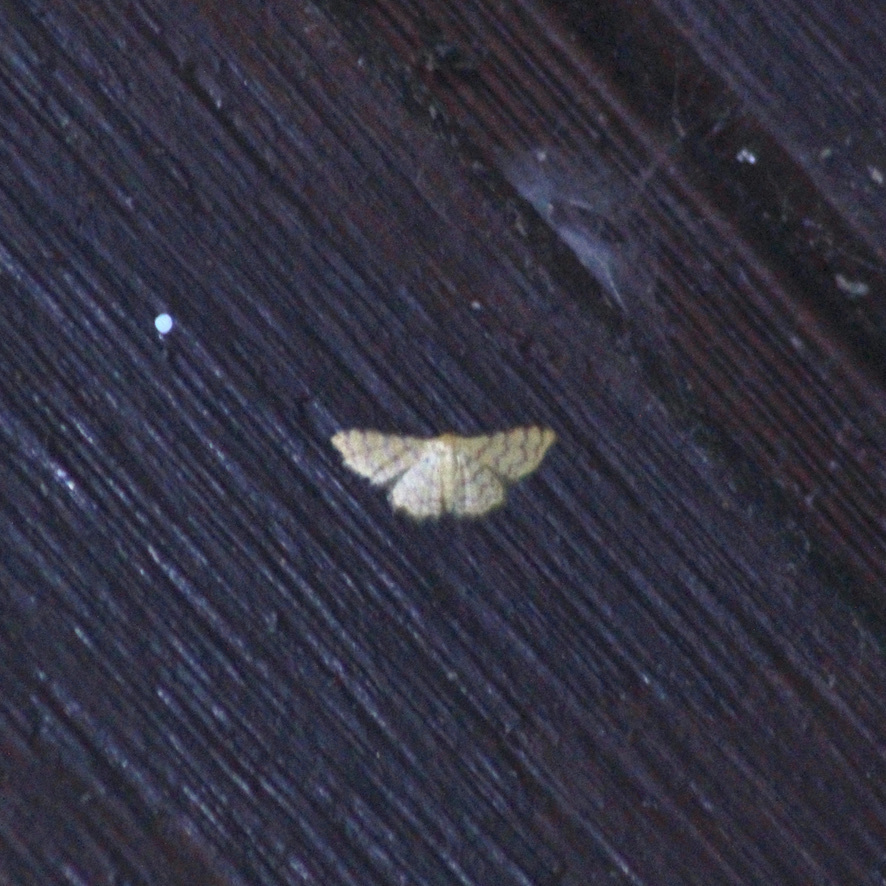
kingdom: Animalia
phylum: Arthropoda
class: Insecta
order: Lepidoptera
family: Geometridae
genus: Tricentrogyna
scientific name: Tricentrogyna deportata
